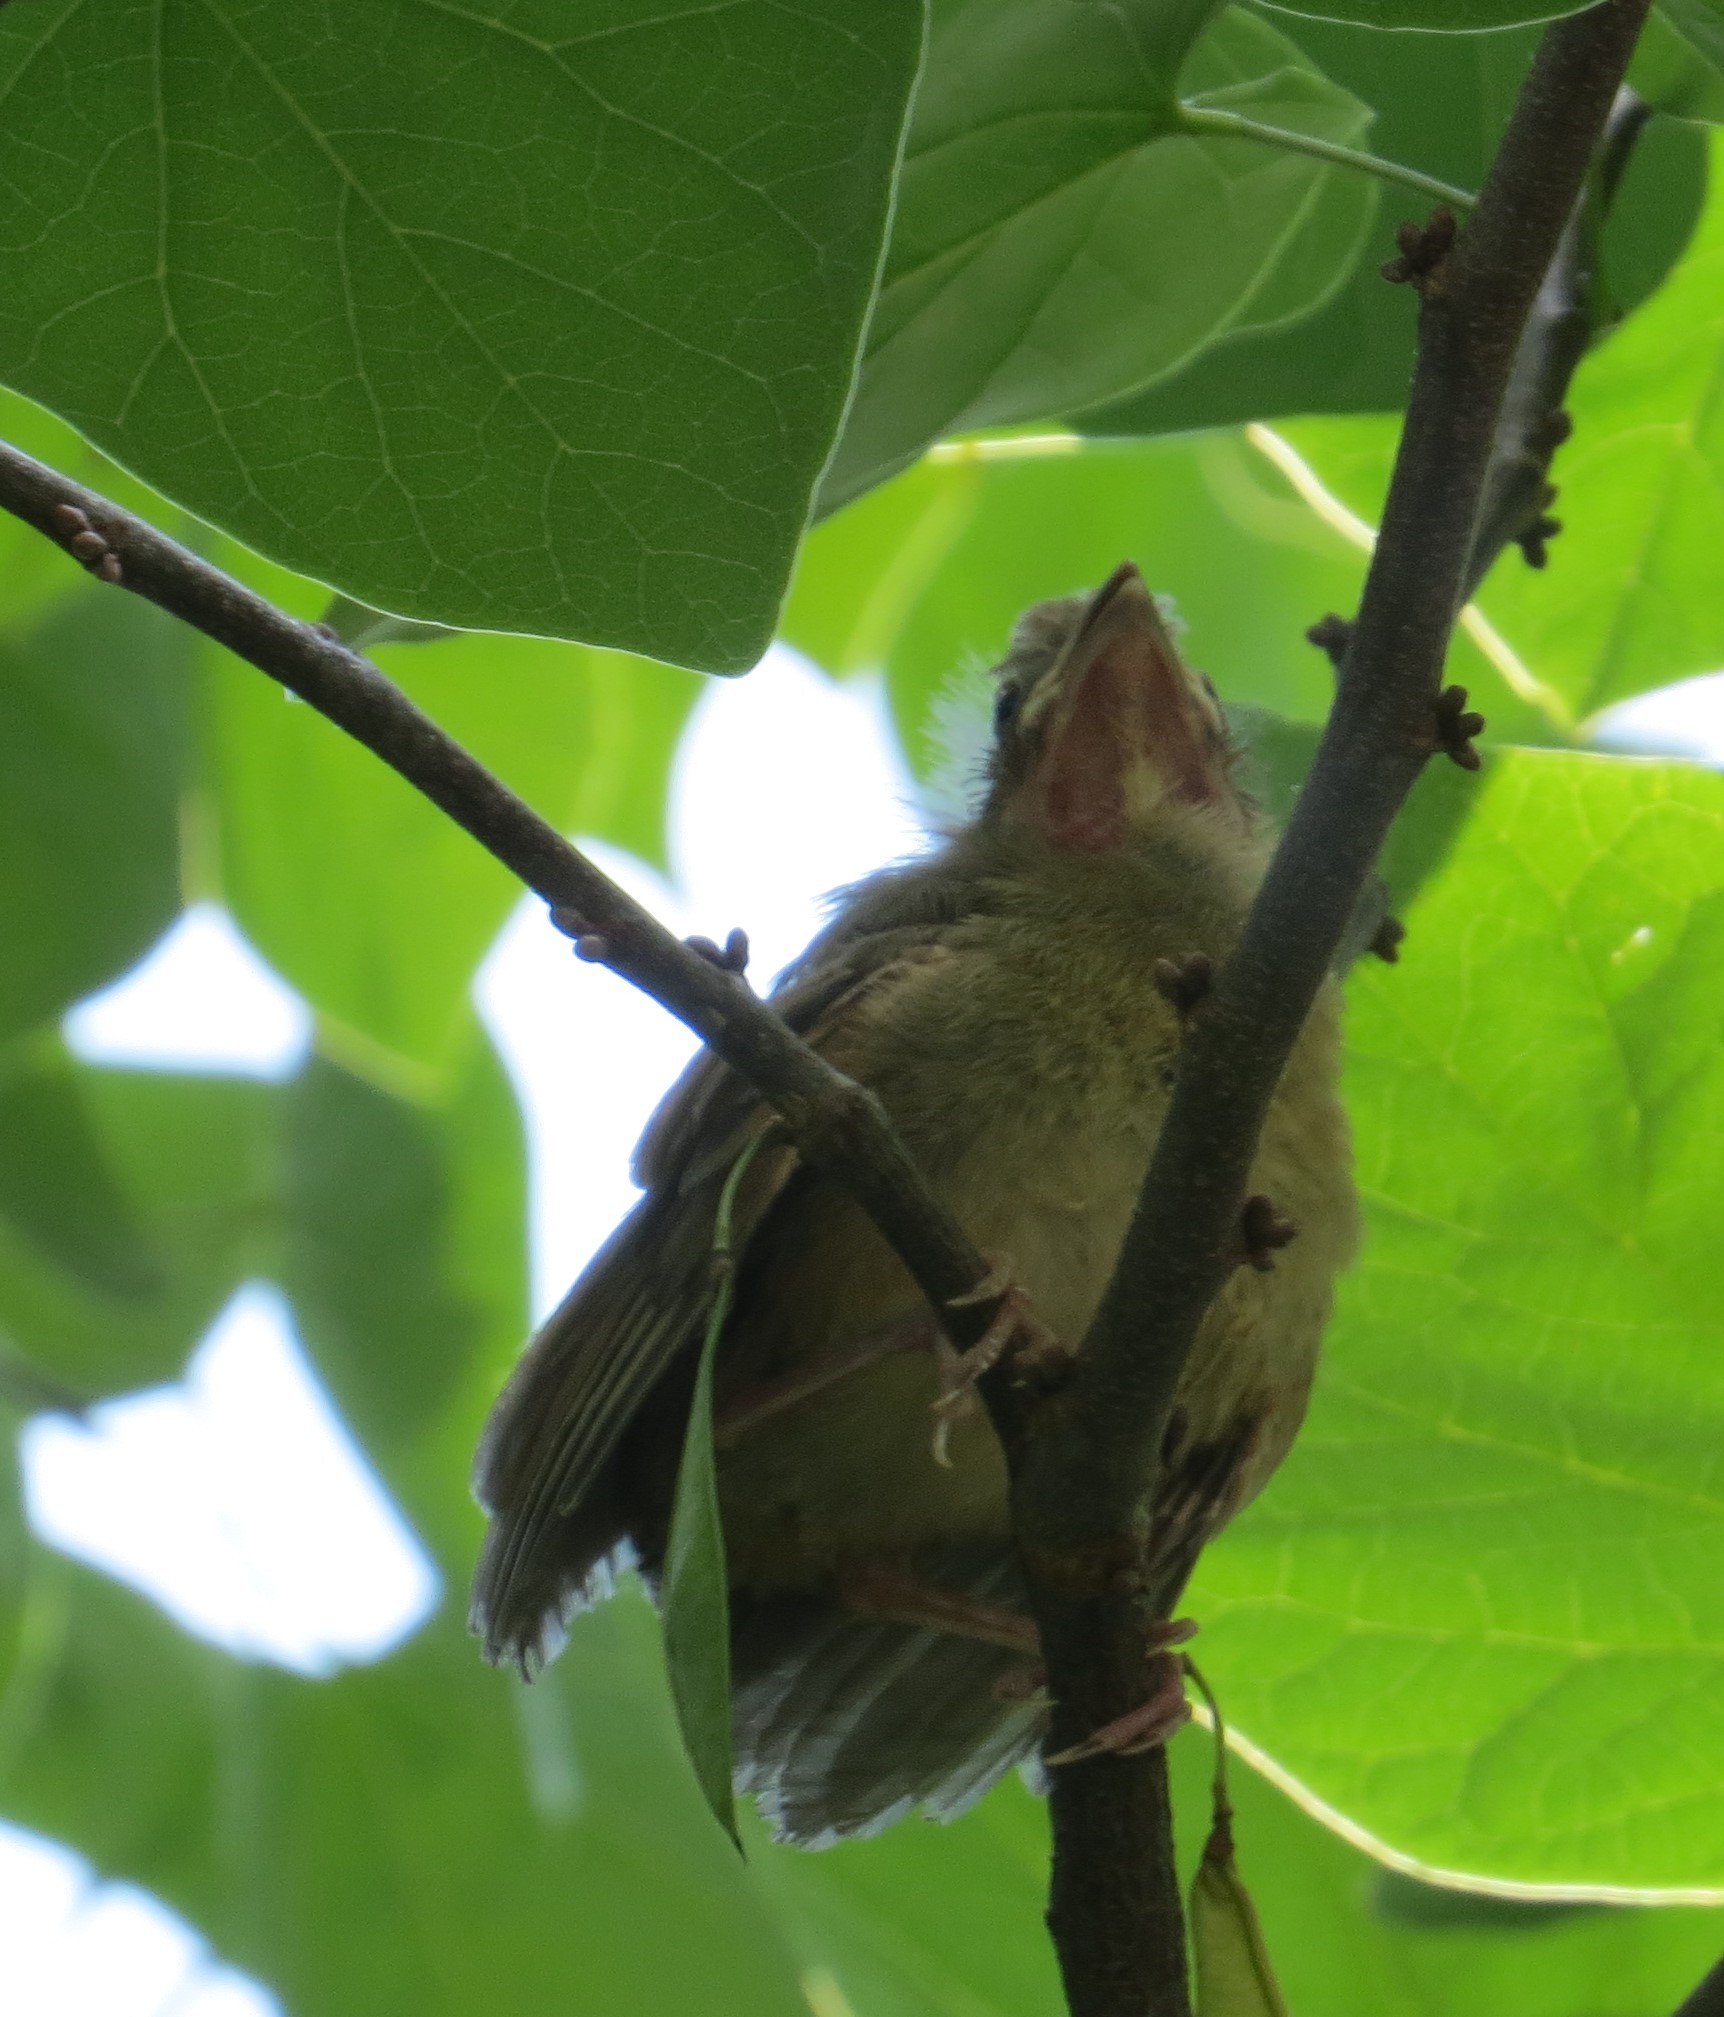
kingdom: Animalia
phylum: Chordata
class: Aves
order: Passeriformes
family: Cardinalidae
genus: Cardinalis
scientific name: Cardinalis cardinalis
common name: Northern cardinal
